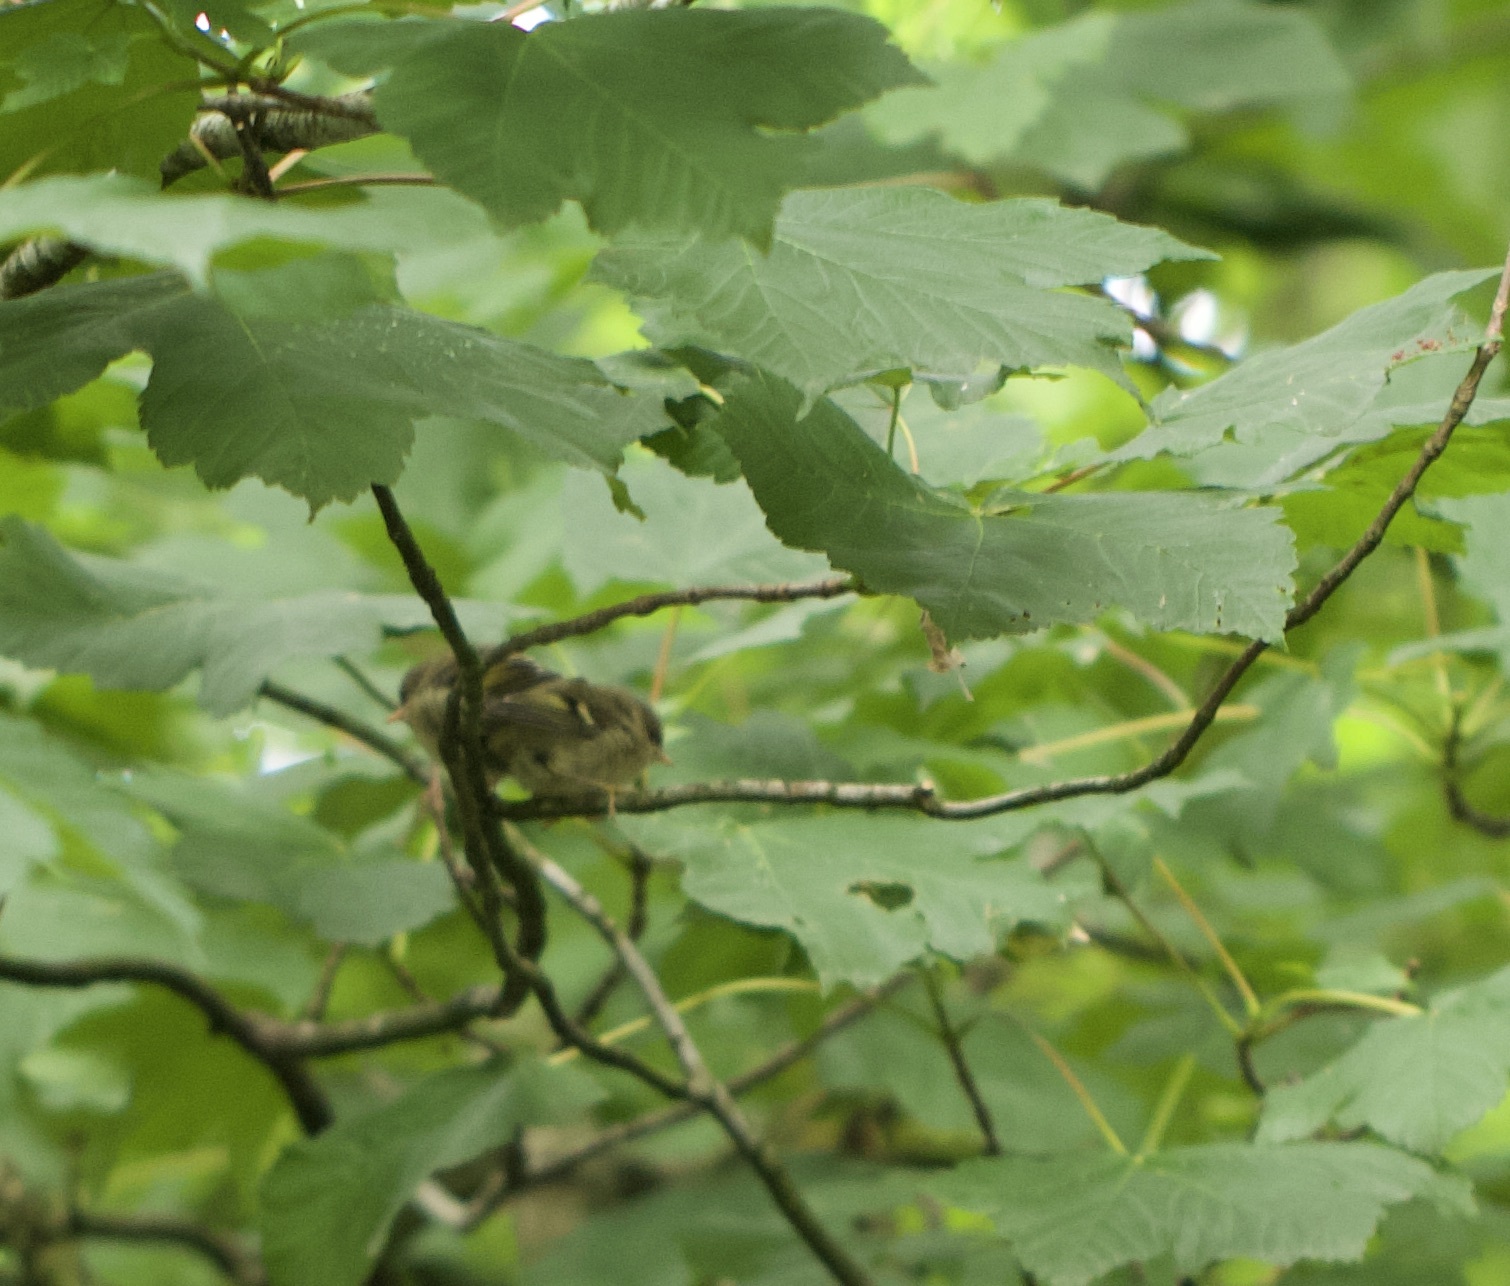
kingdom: Animalia
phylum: Chordata
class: Aves
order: Passeriformes
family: Regulidae
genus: Regulus
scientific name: Regulus regulus
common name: Goldcrest
